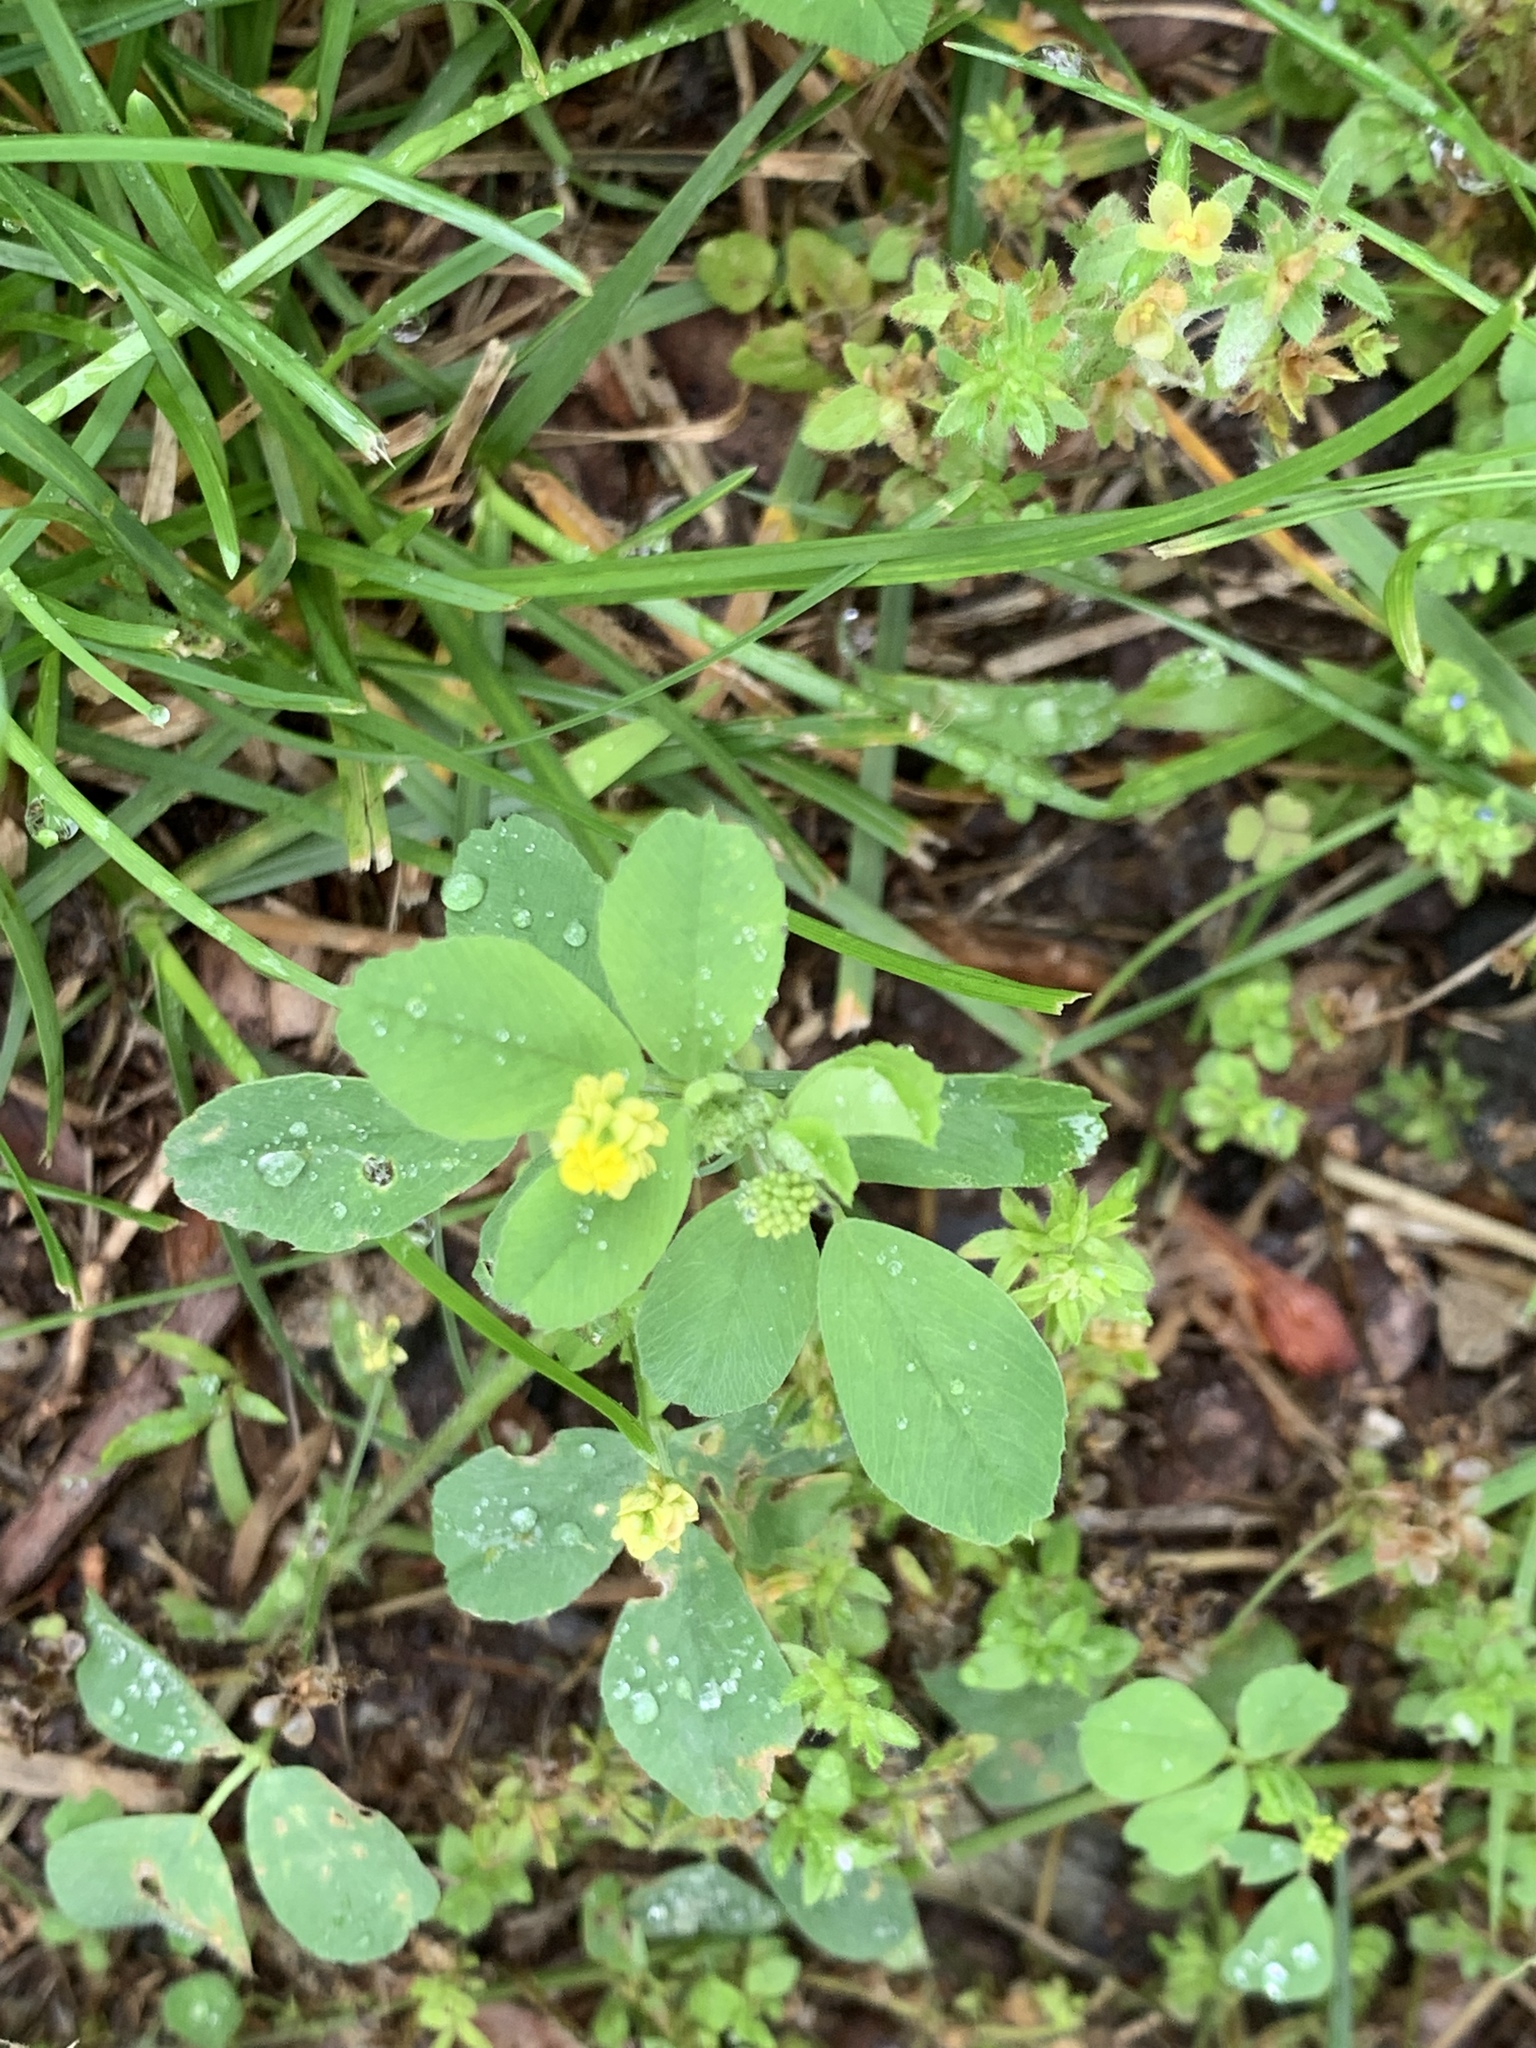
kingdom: Plantae
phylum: Tracheophyta
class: Magnoliopsida
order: Fabales
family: Fabaceae
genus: Medicago
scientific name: Medicago lupulina
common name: Black medick
